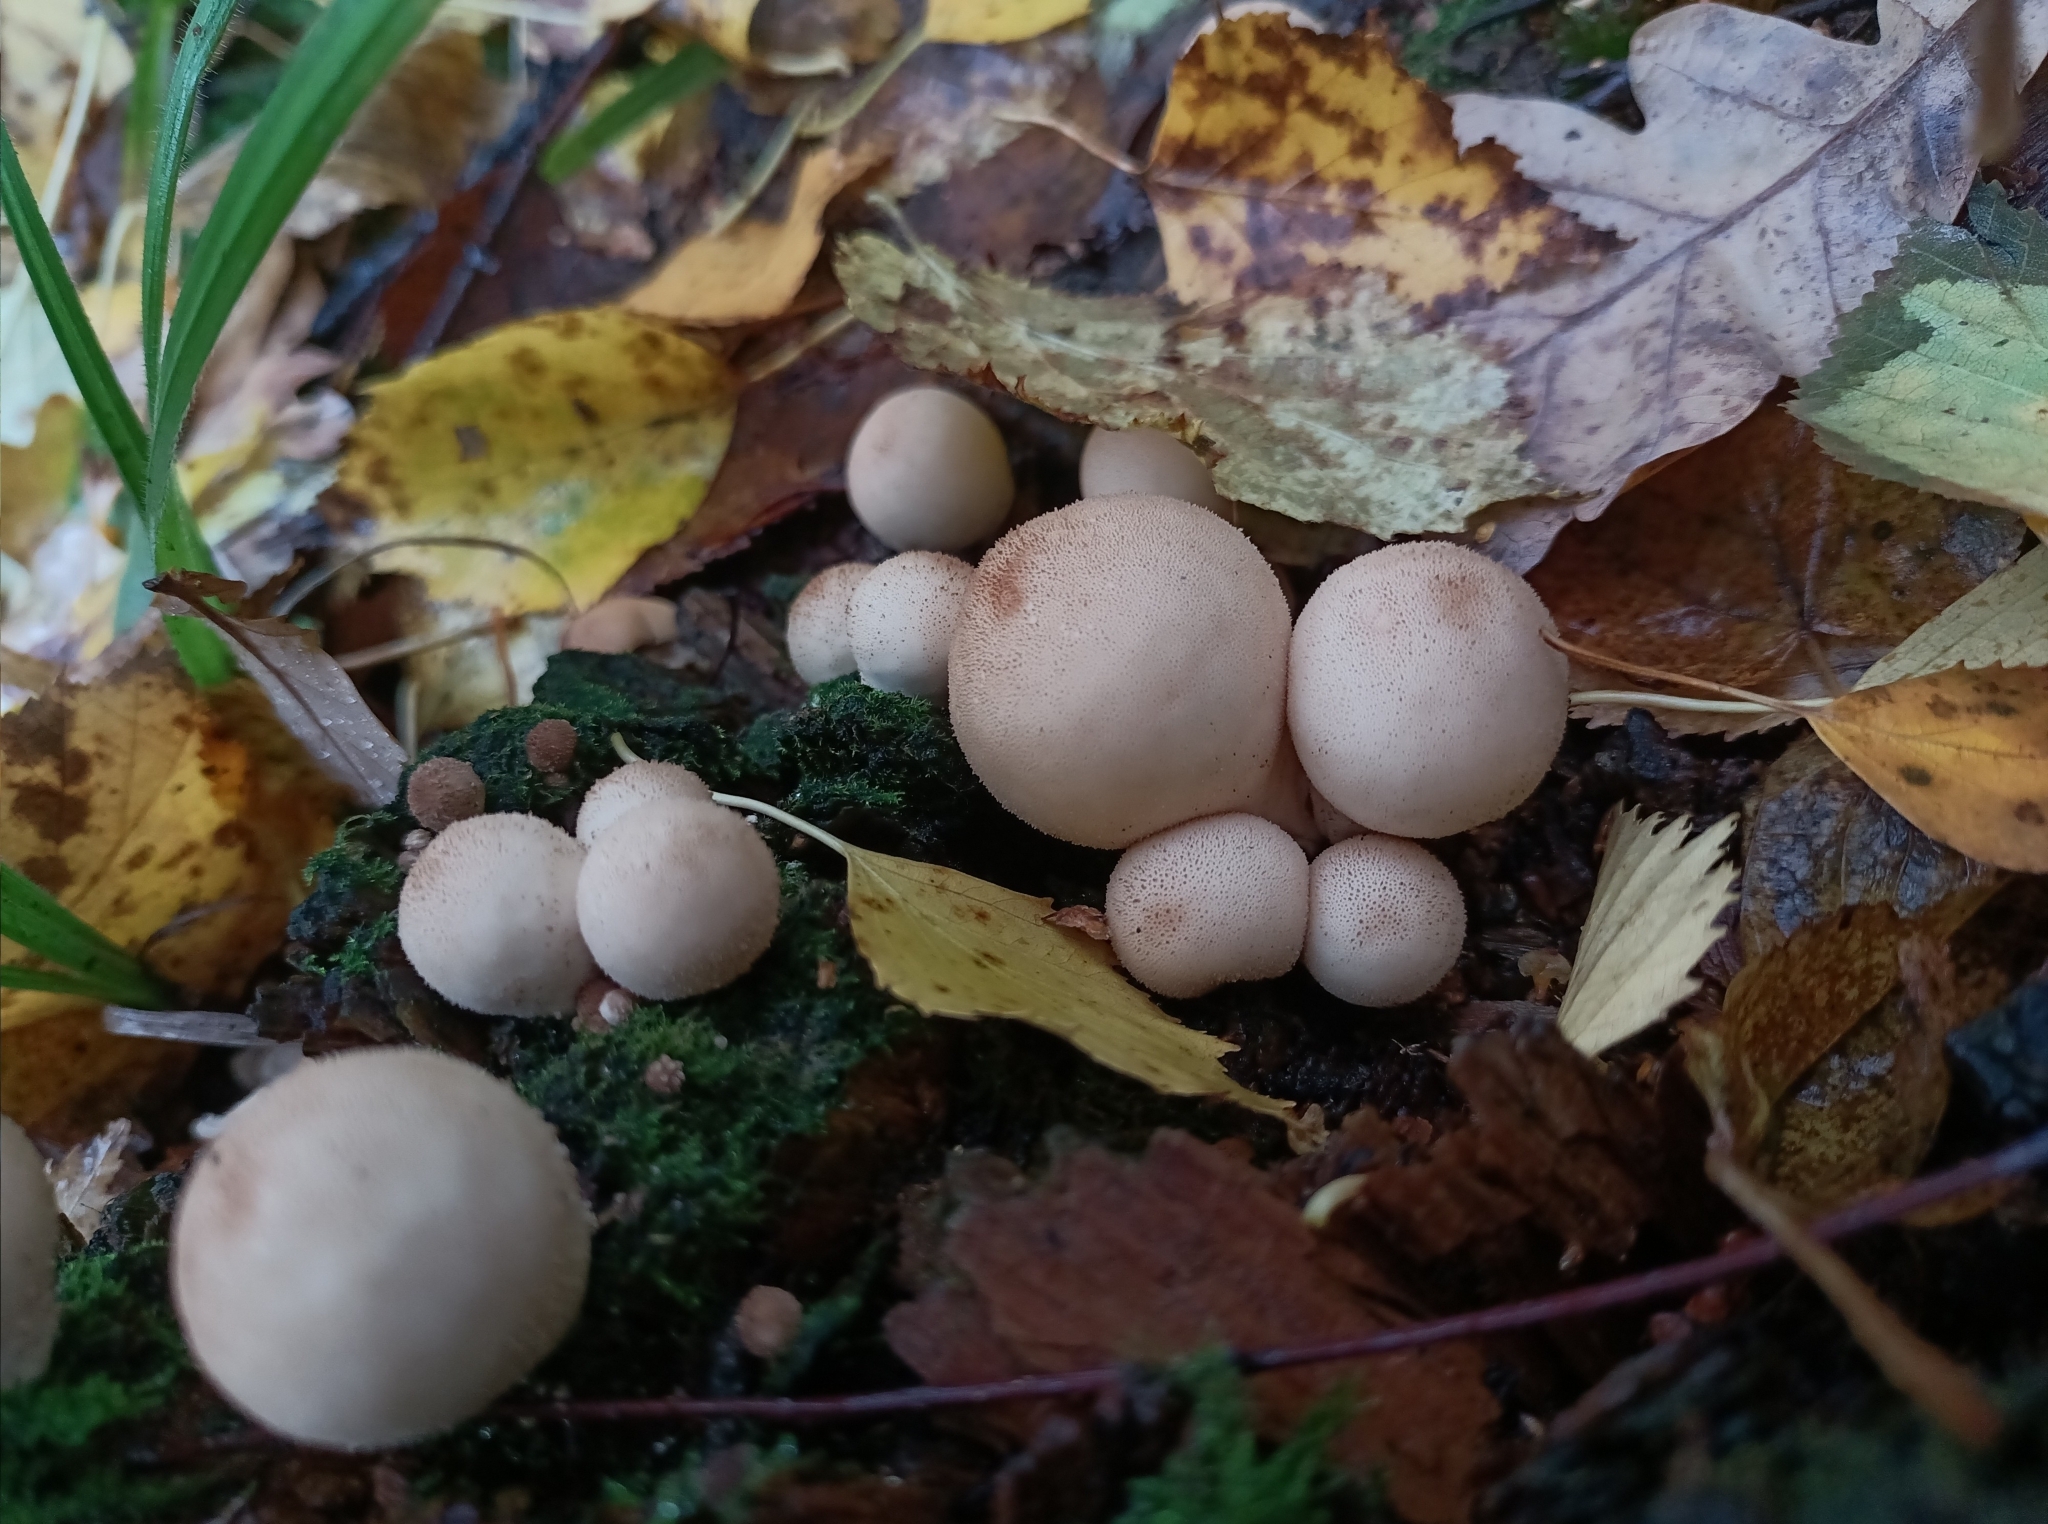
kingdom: Fungi
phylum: Basidiomycota
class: Agaricomycetes
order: Agaricales
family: Lycoperdaceae
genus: Apioperdon
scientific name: Apioperdon pyriforme
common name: Pear-shaped puffball
